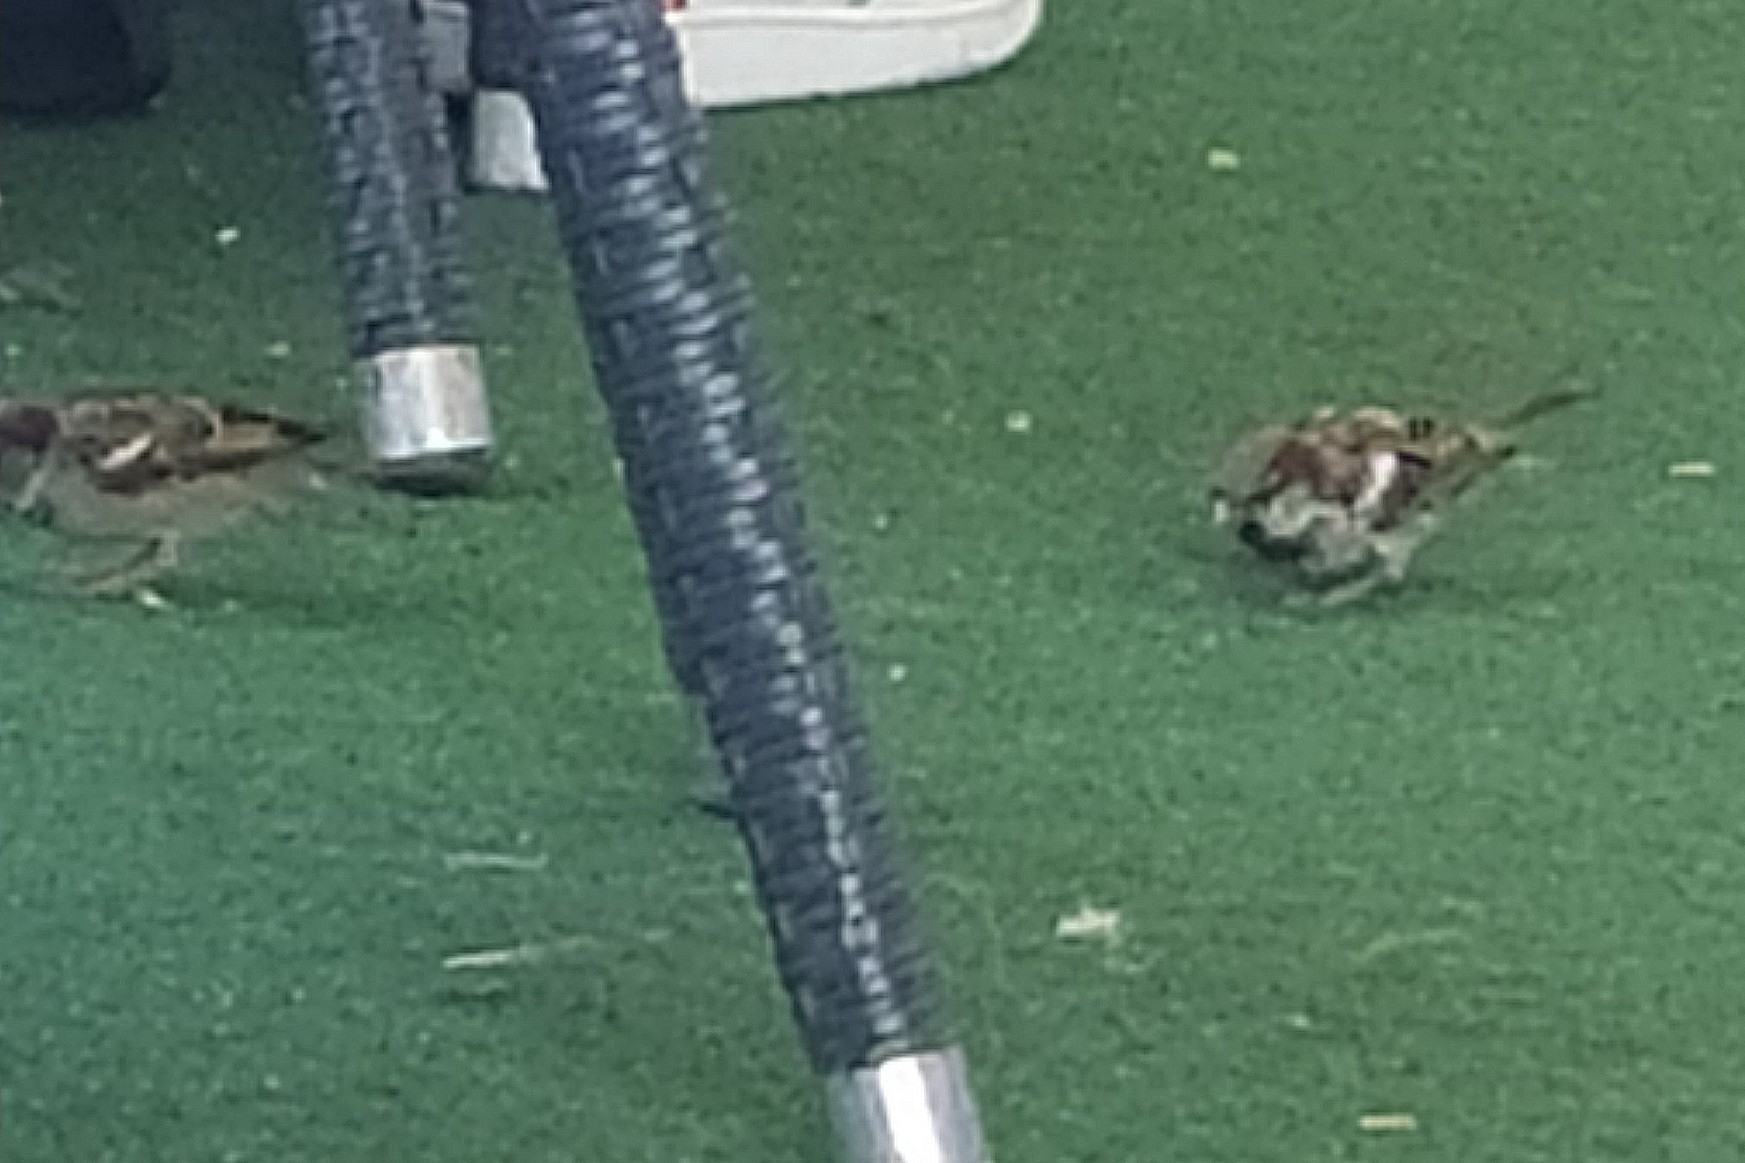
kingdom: Animalia
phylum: Chordata
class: Aves
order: Passeriformes
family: Passeridae
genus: Passer
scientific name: Passer domesticus
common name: House sparrow
